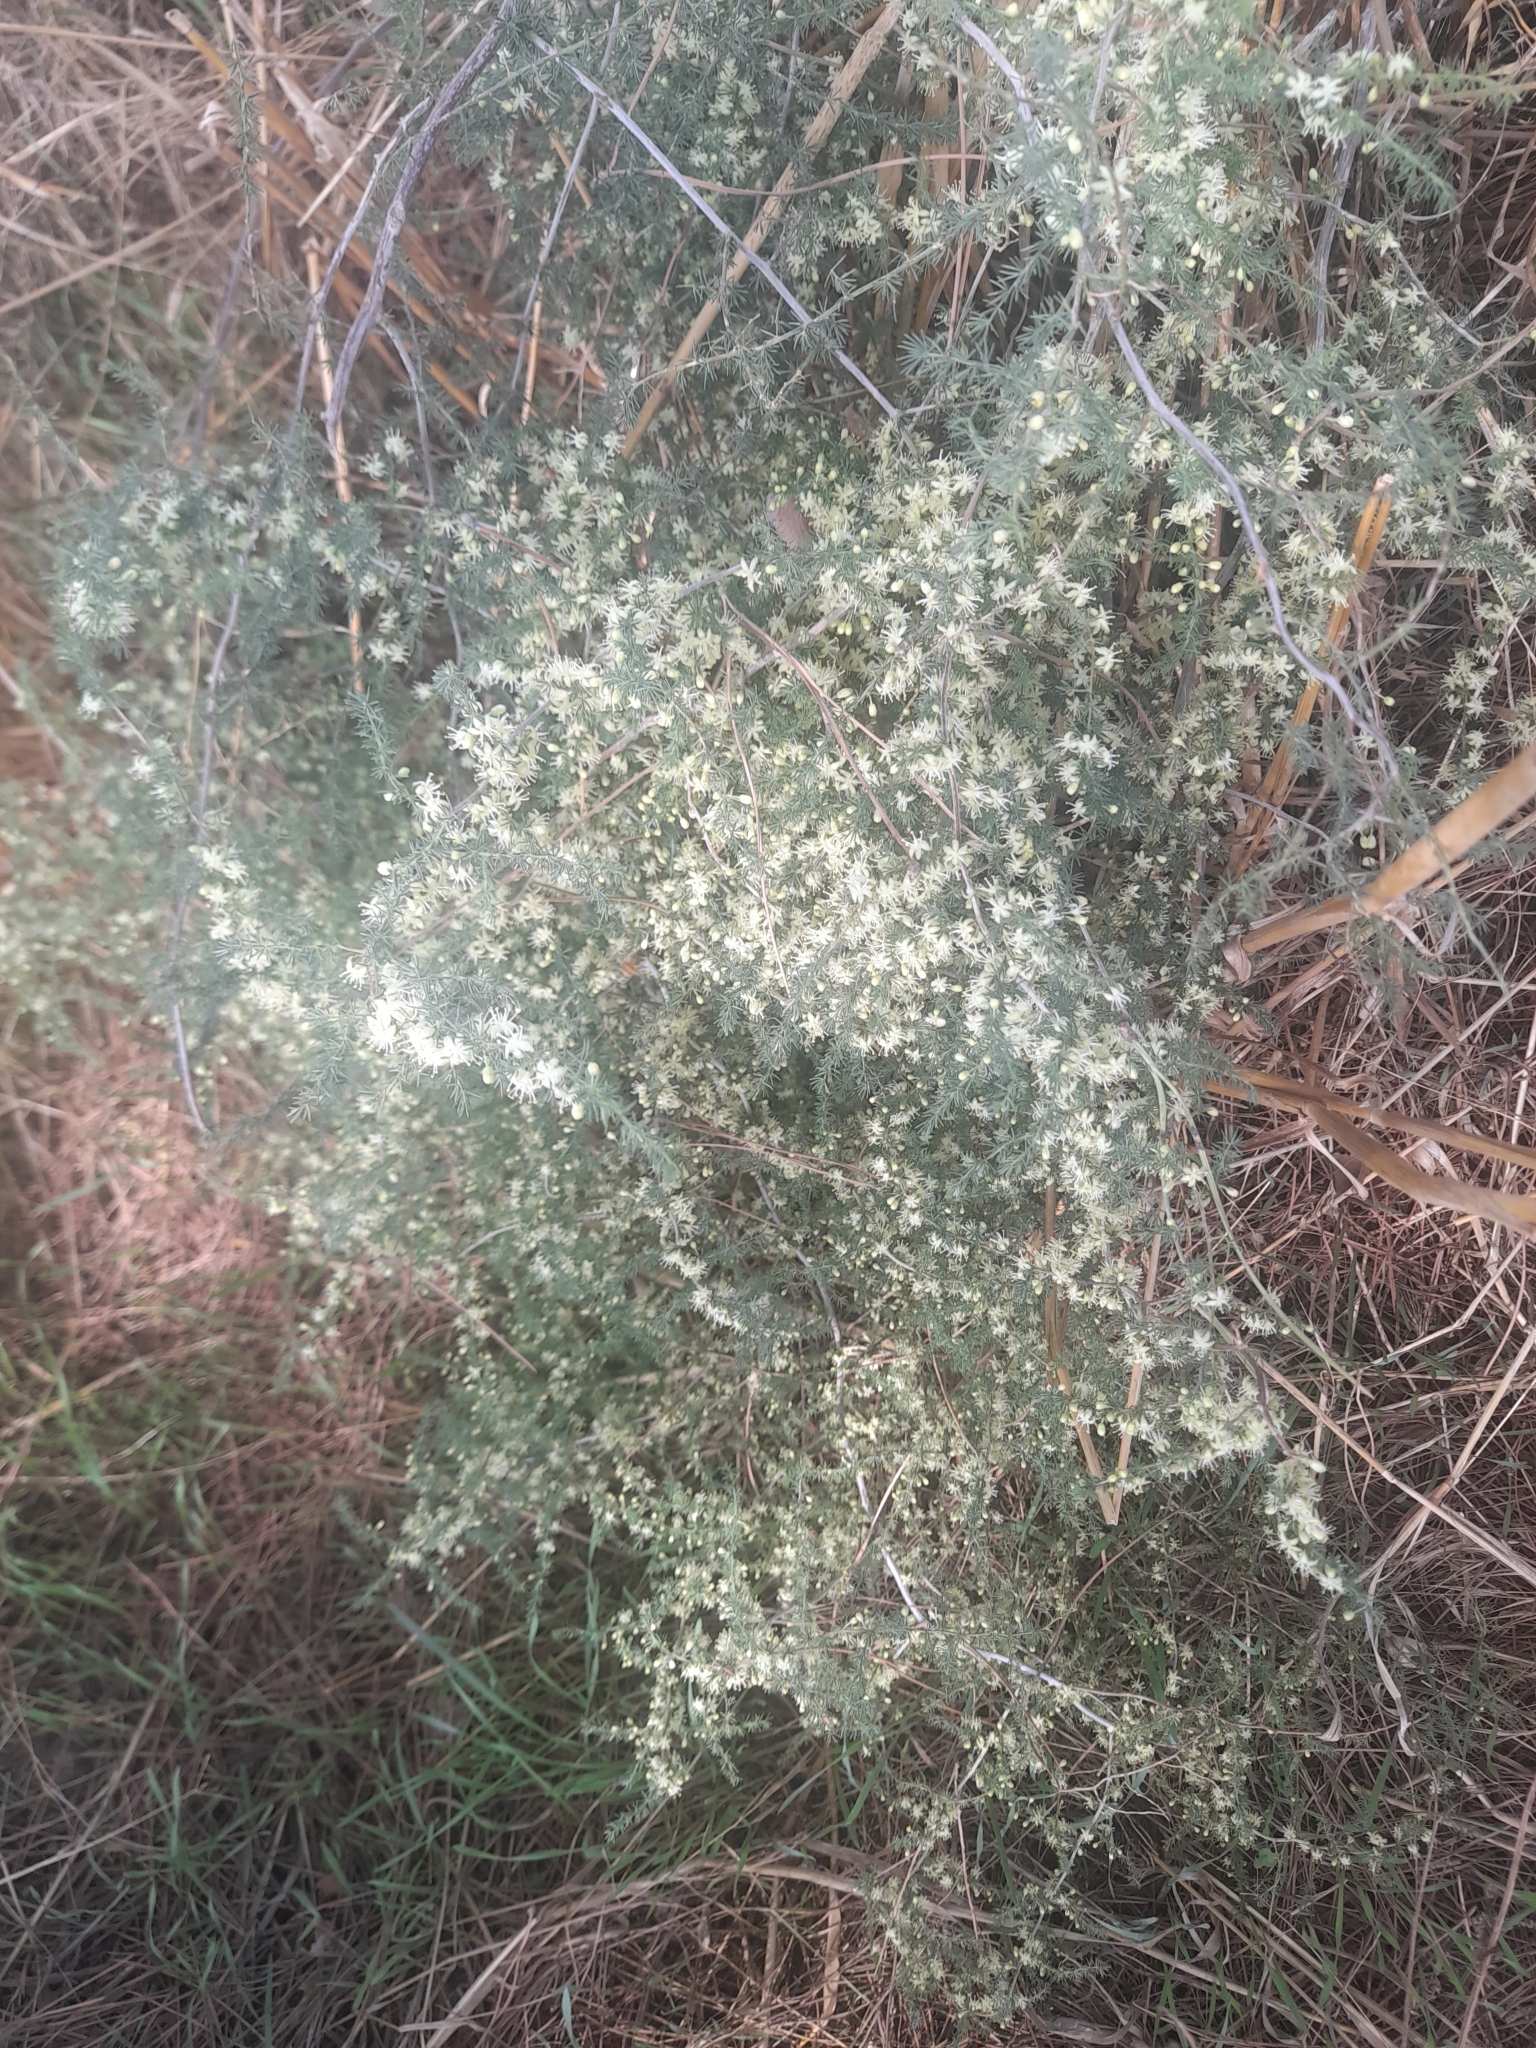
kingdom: Plantae
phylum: Tracheophyta
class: Liliopsida
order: Asparagales
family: Asparagaceae
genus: Asparagus
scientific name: Asparagus acutifolius
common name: Wild asparagus
